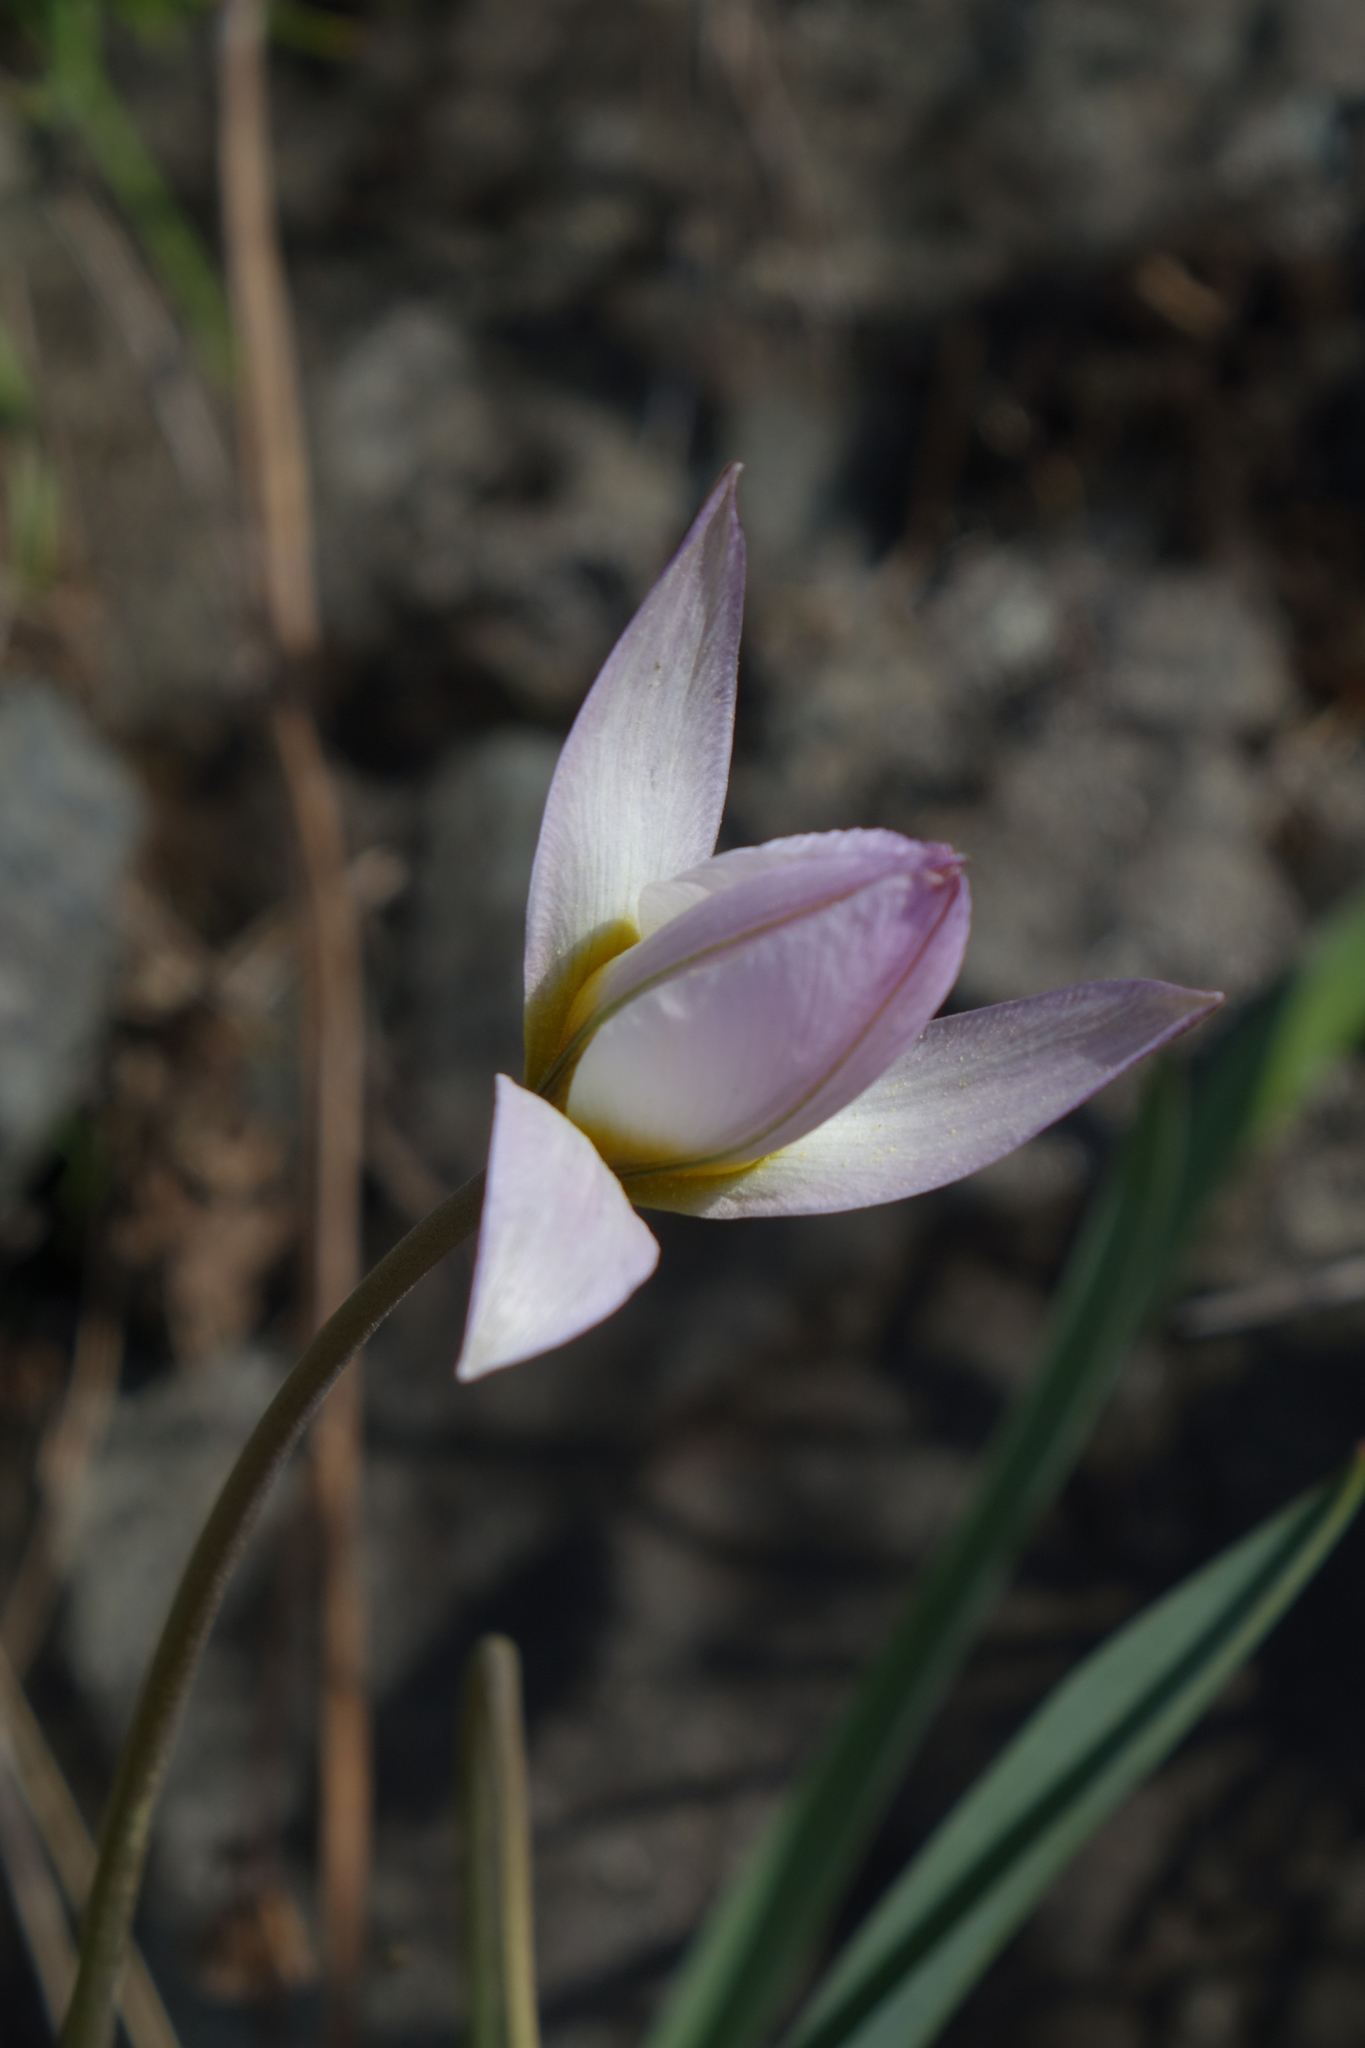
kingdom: Plantae
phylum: Tracheophyta
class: Liliopsida
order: Liliales
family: Liliaceae
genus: Tulipa
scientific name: Tulipa patens
